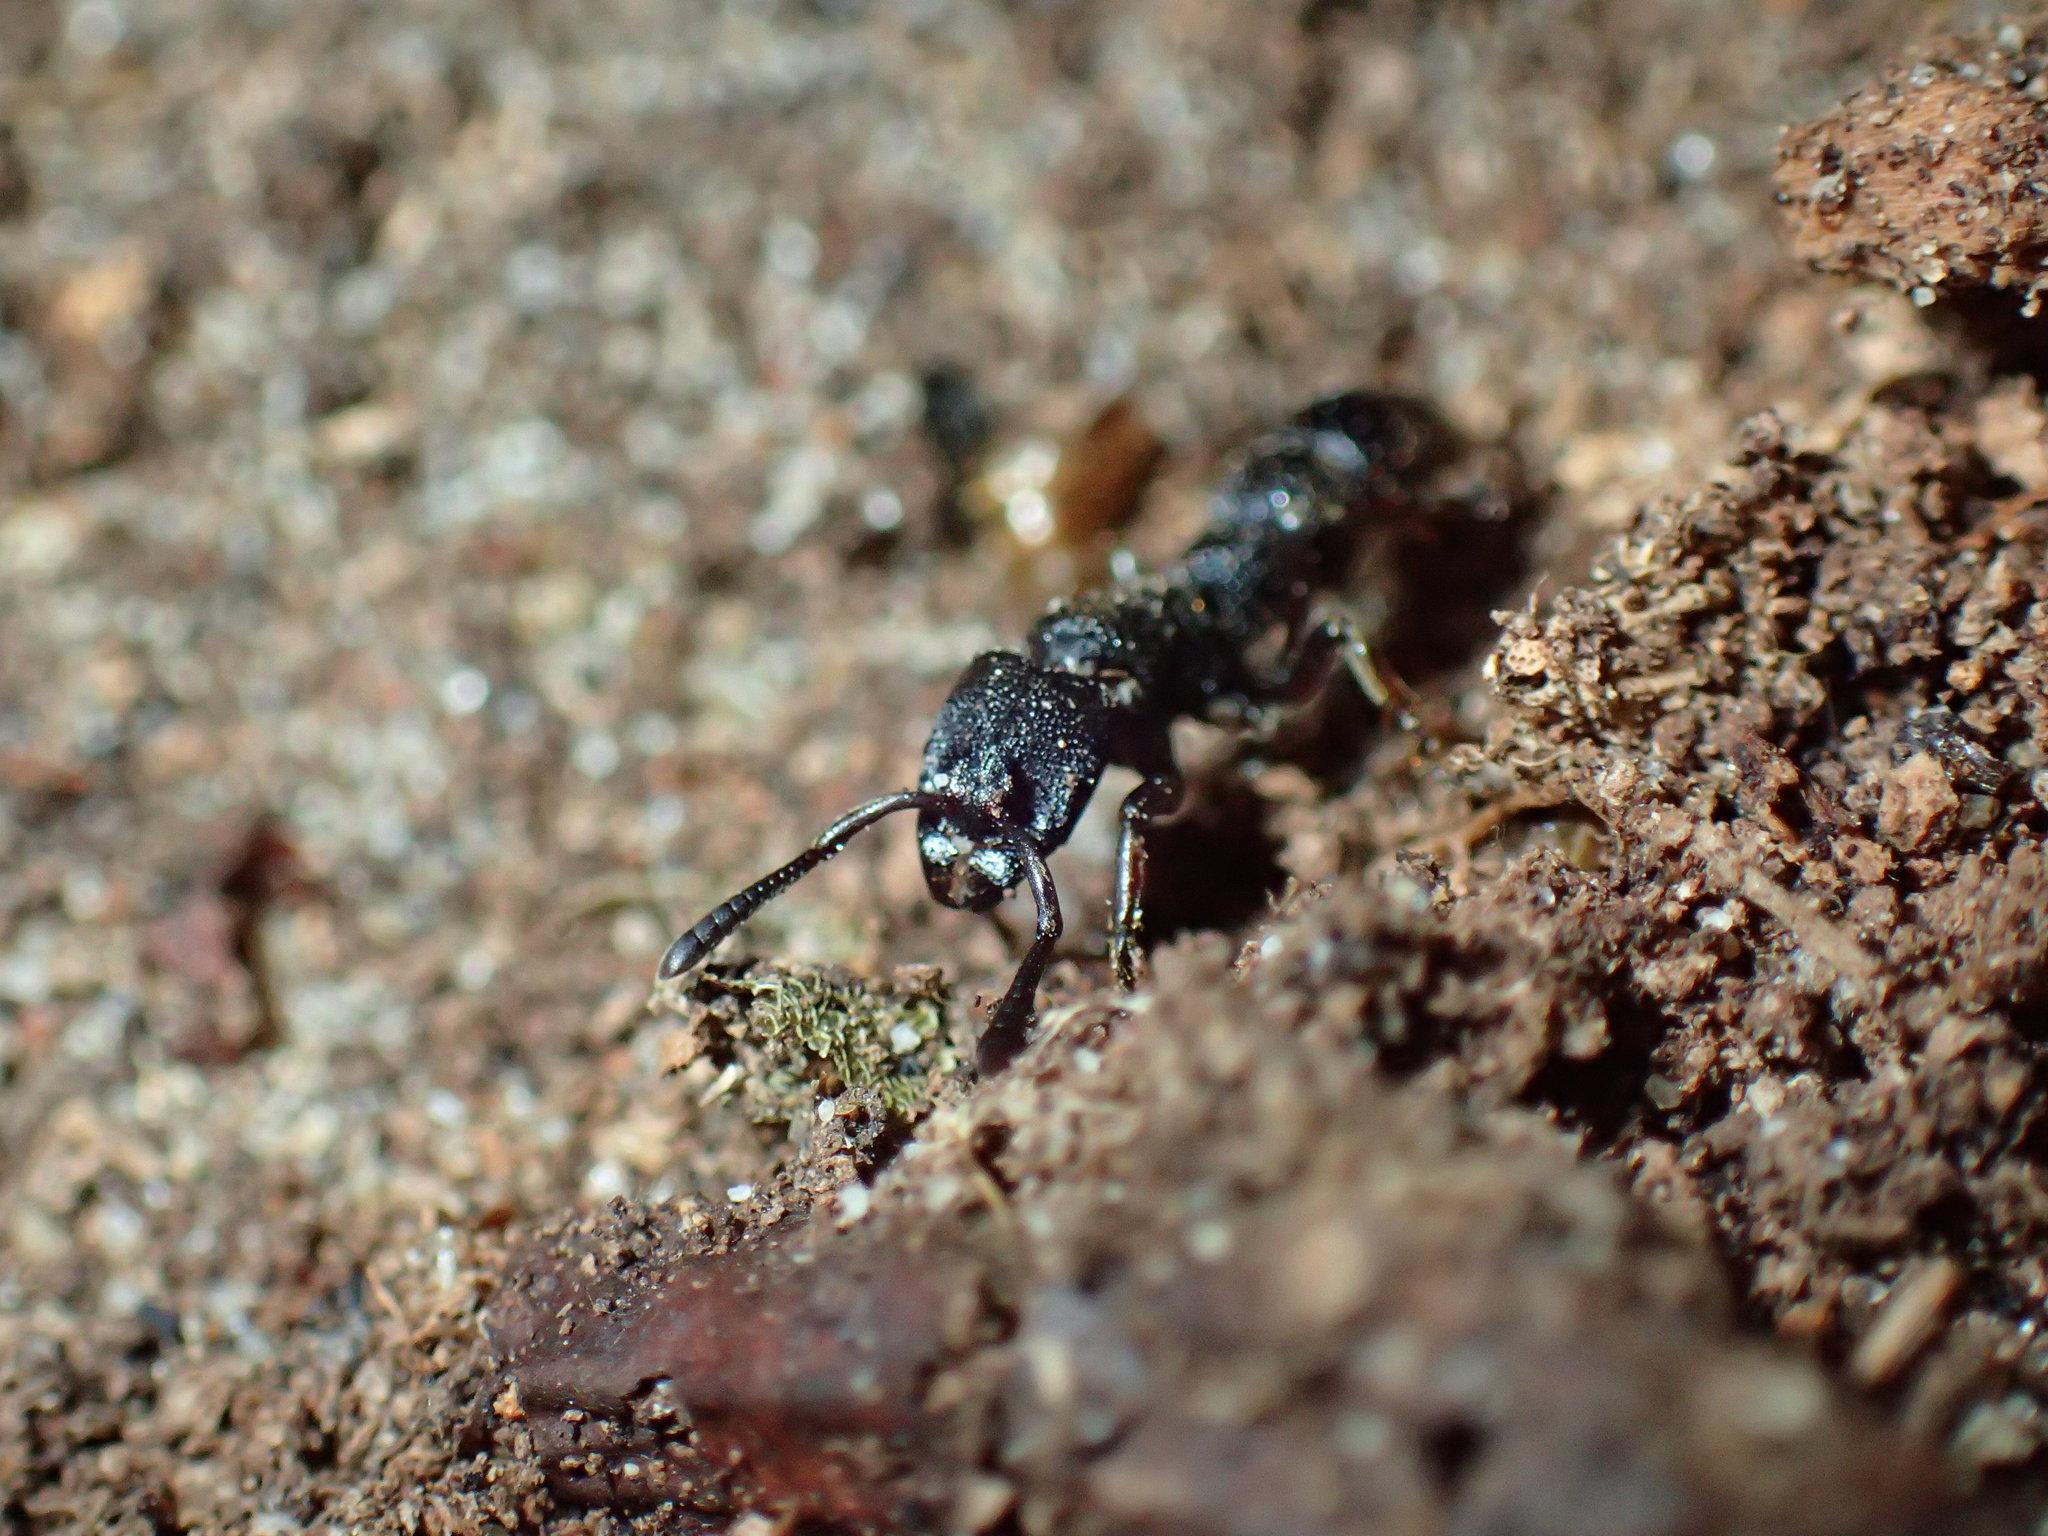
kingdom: Animalia
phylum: Arthropoda
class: Insecta
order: Hymenoptera
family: Formicidae
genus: Bothroponera
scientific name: Bothroponera
